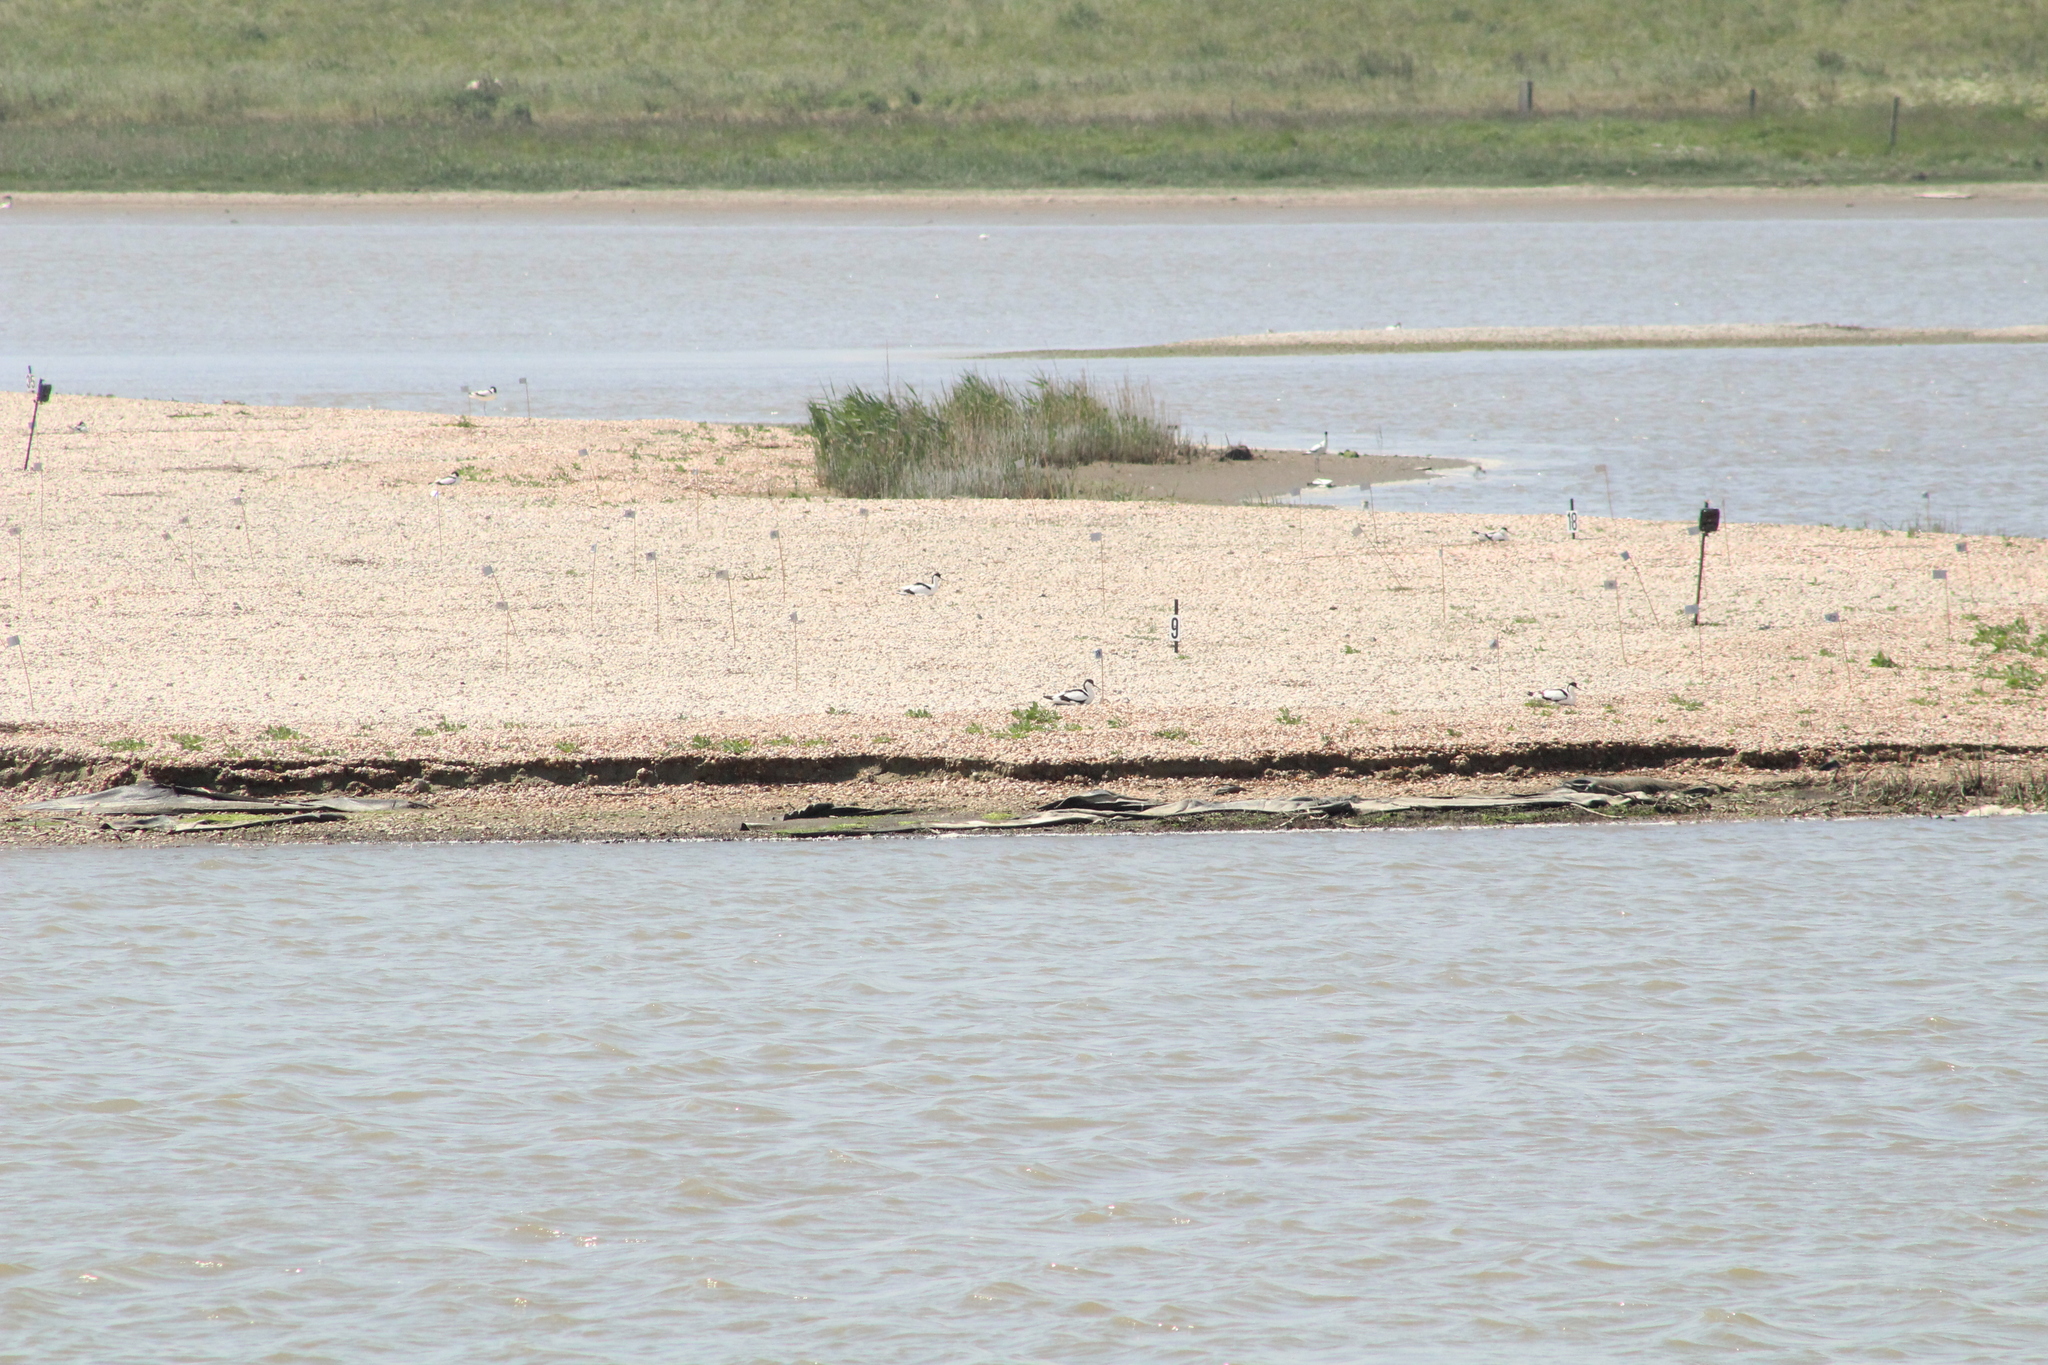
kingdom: Animalia
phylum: Chordata
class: Aves
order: Charadriiformes
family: Recurvirostridae
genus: Recurvirostra
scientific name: Recurvirostra avosetta
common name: Pied avocet
